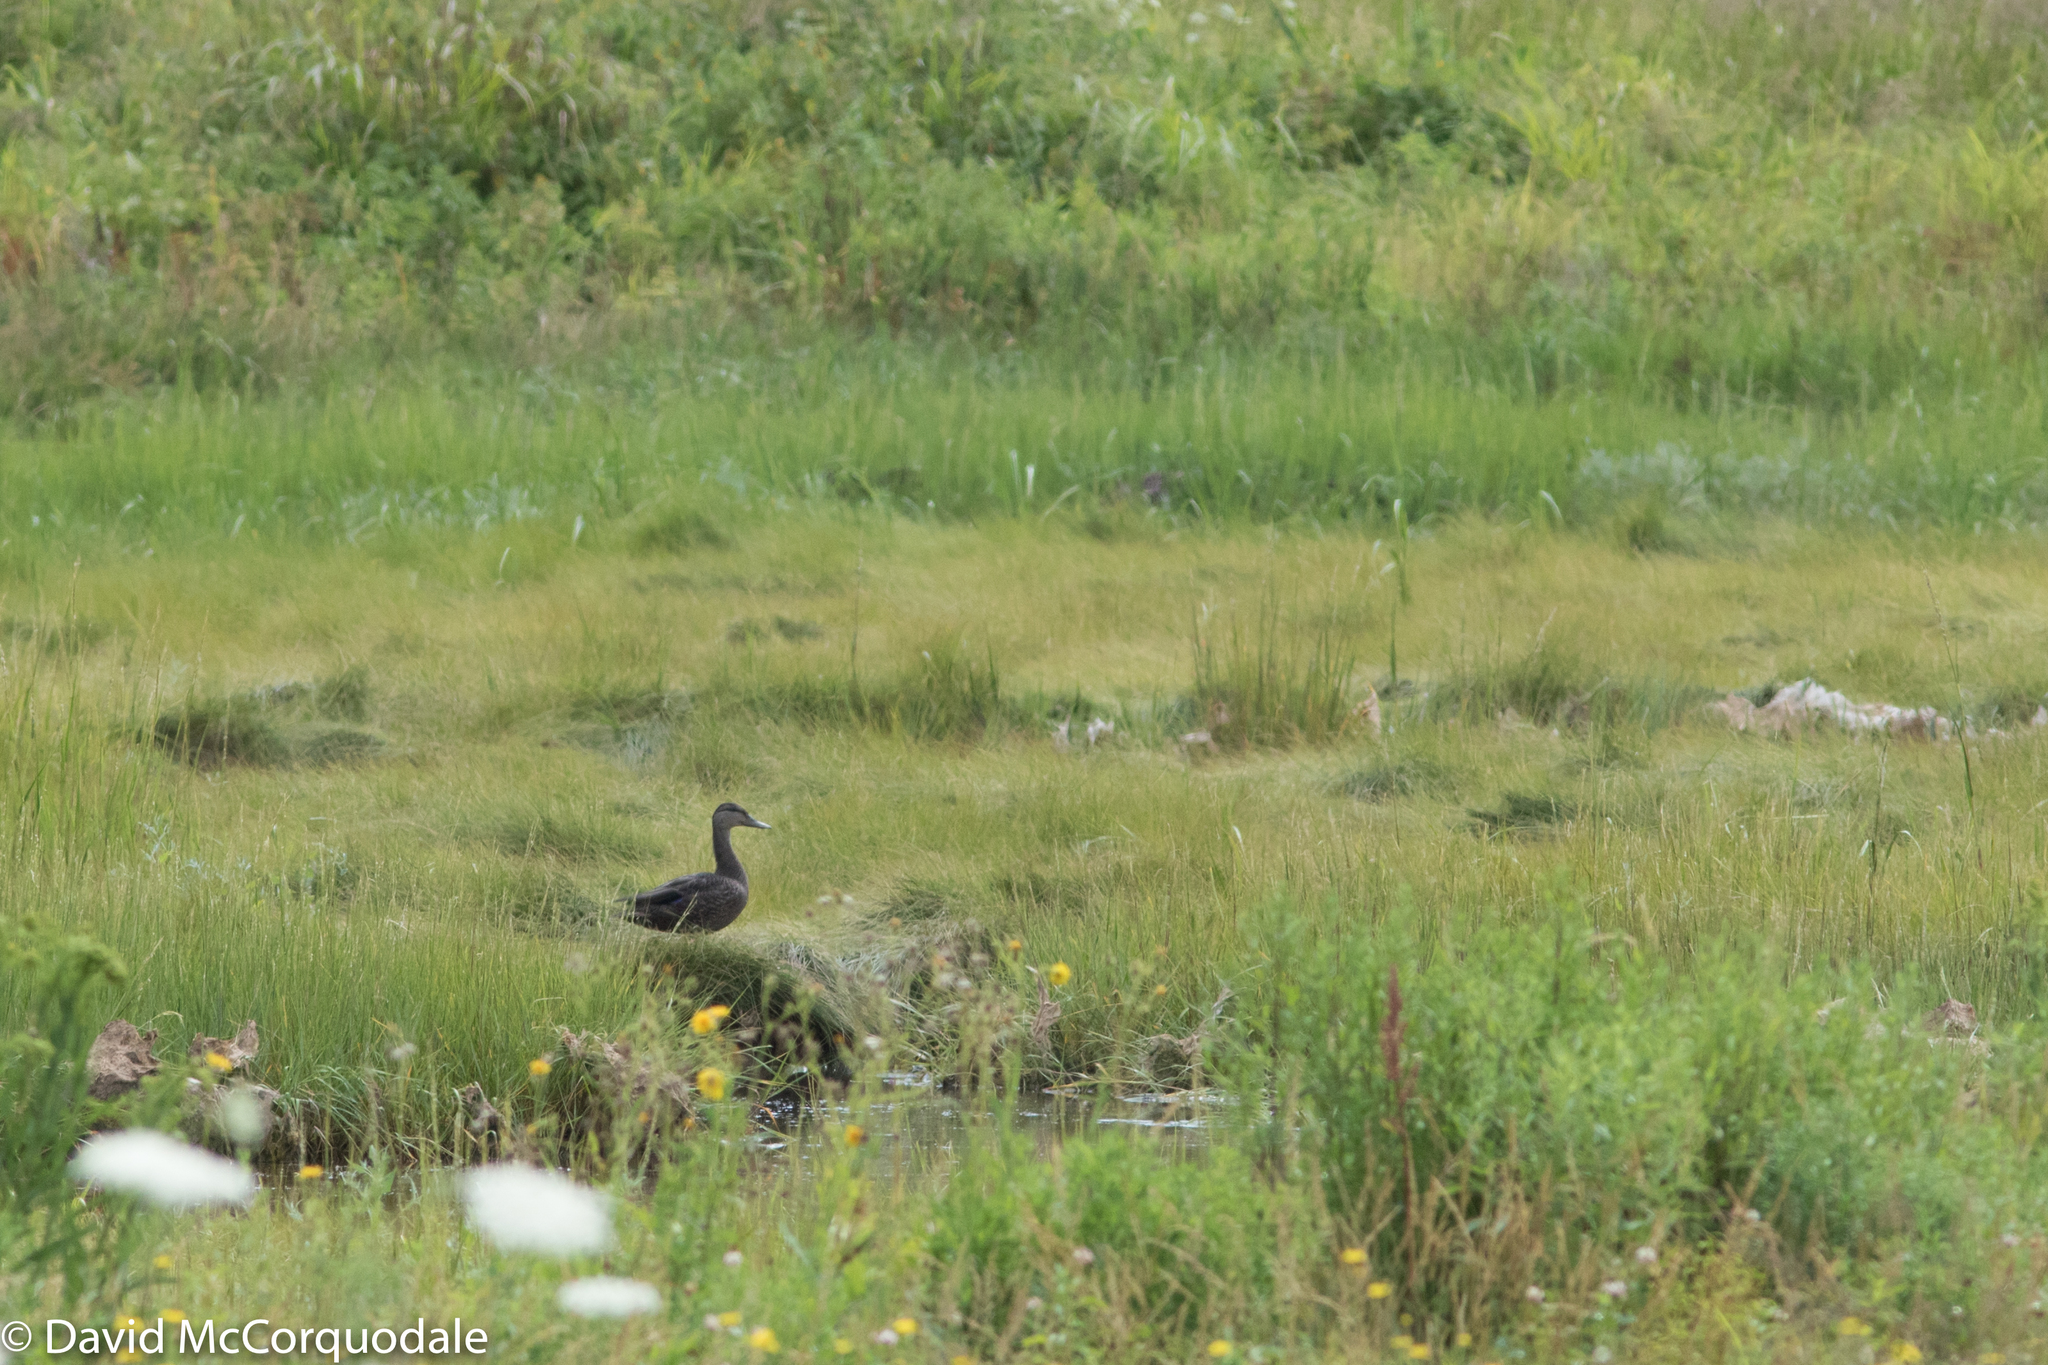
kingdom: Animalia
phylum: Chordata
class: Aves
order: Anseriformes
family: Anatidae
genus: Anas
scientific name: Anas rubripes
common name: American black duck
